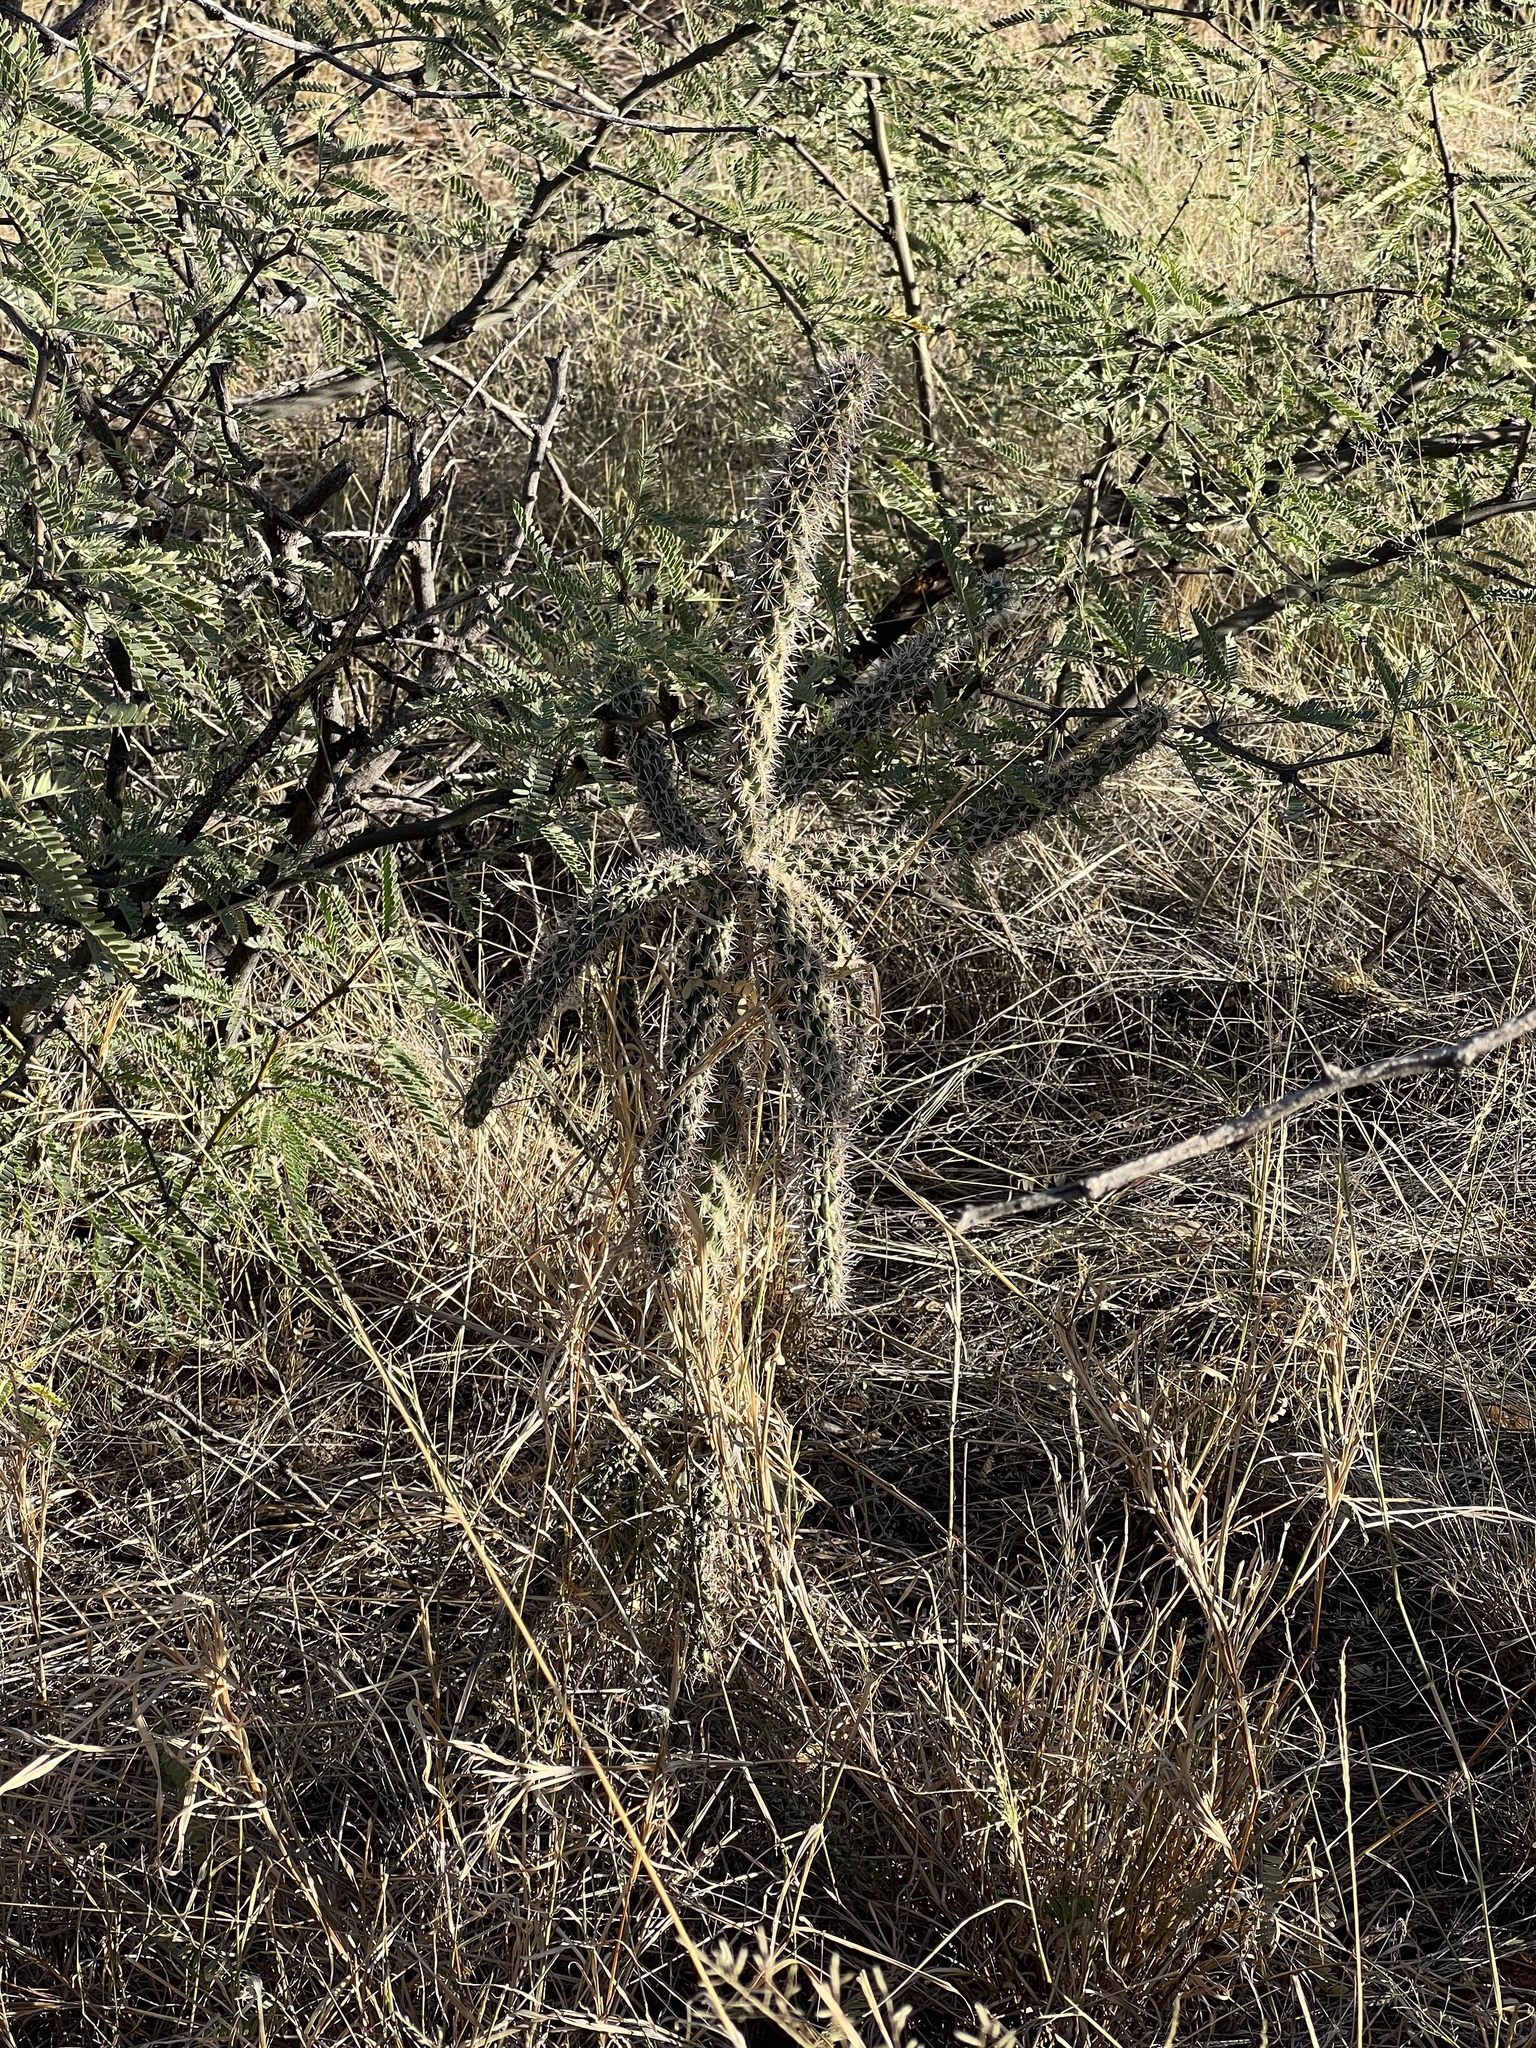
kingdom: Plantae
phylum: Tracheophyta
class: Magnoliopsida
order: Caryophyllales
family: Cactaceae
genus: Cylindropuntia
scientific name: Cylindropuntia imbricata
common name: Candelabrum cactus
